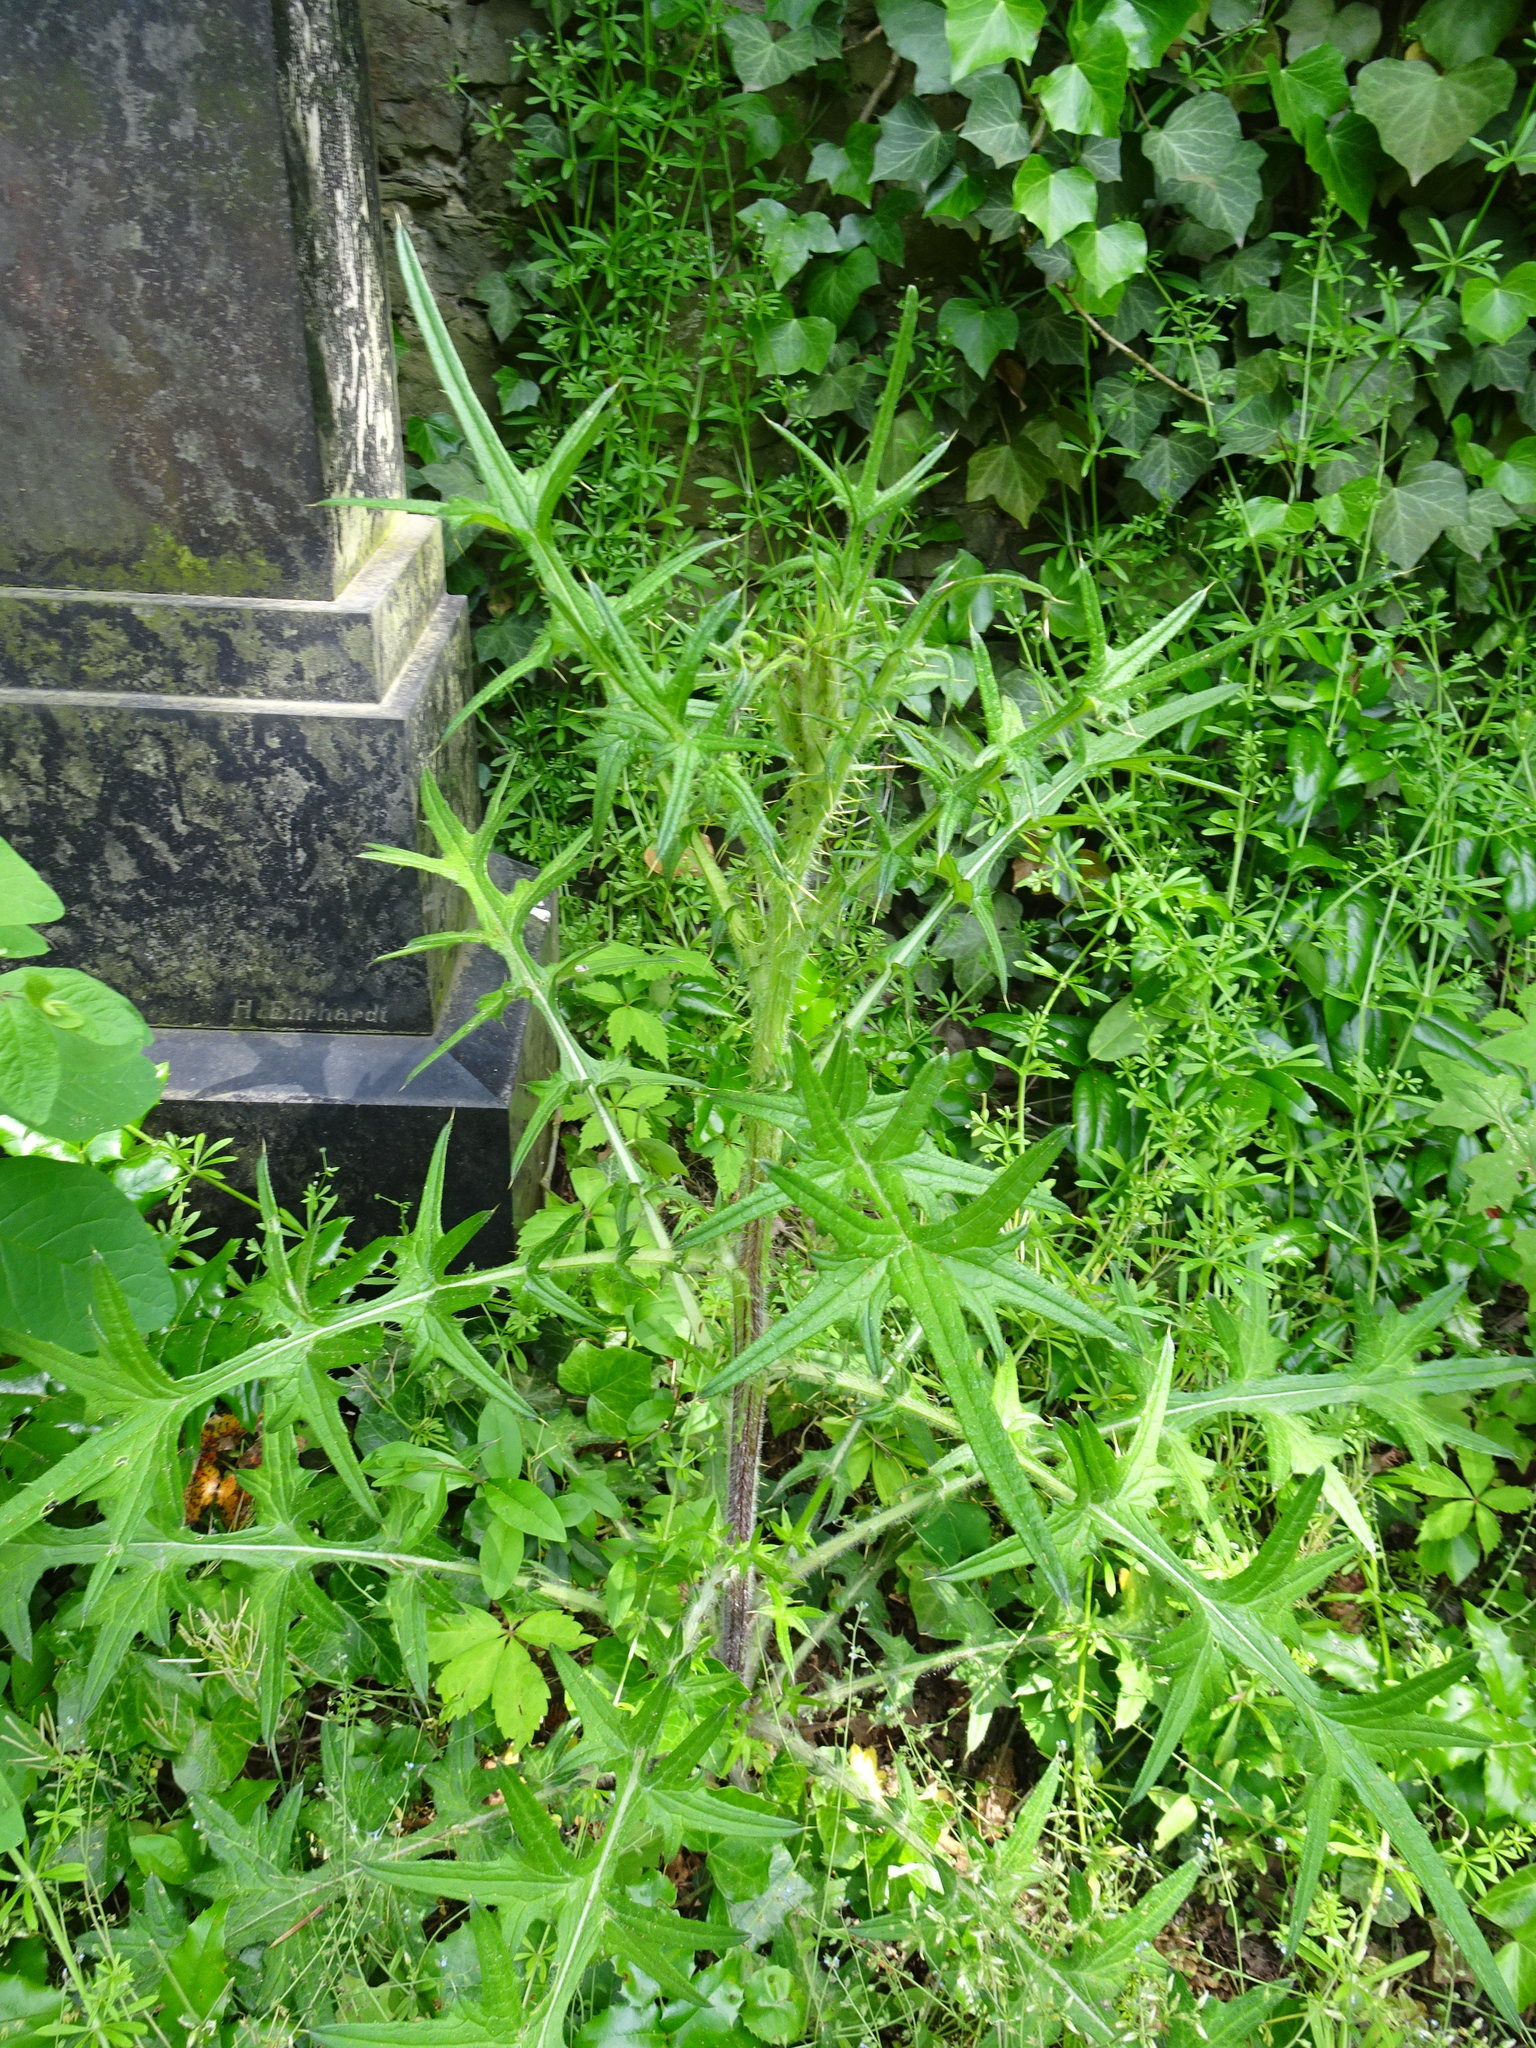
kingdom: Plantae
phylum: Tracheophyta
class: Magnoliopsida
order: Asterales
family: Asteraceae
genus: Cirsium
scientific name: Cirsium vulgare
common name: Bull thistle
